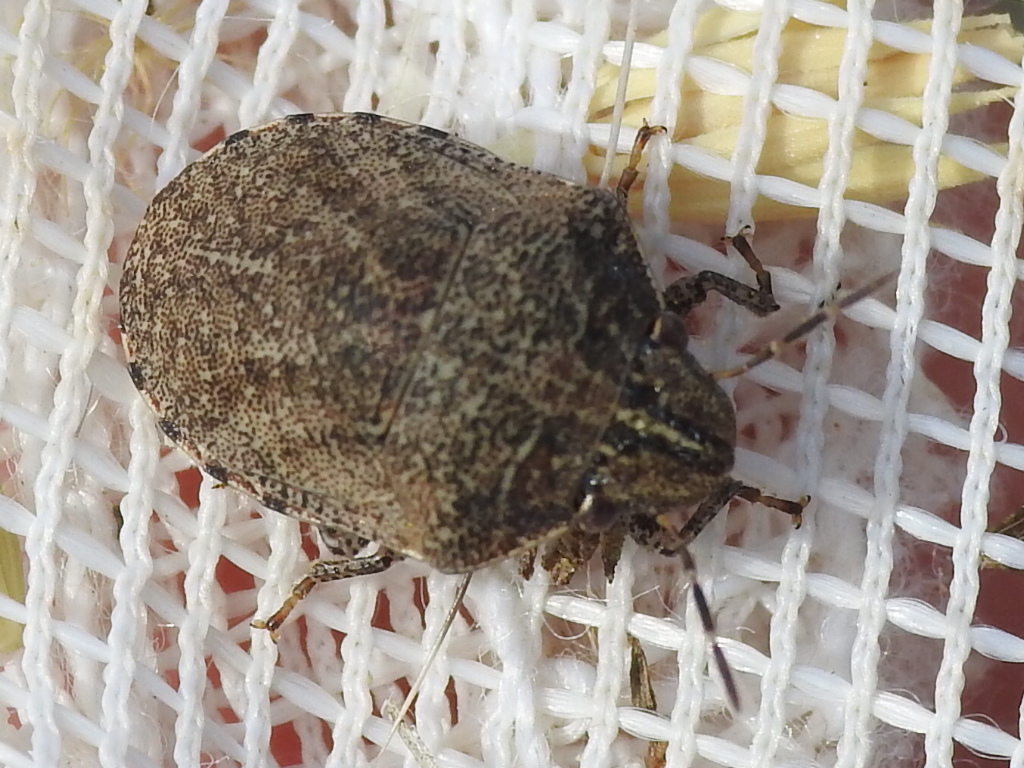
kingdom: Animalia
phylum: Arthropoda
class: Insecta
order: Hemiptera
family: Scutelleridae
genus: Sphyrocoris
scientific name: Sphyrocoris obliquus
